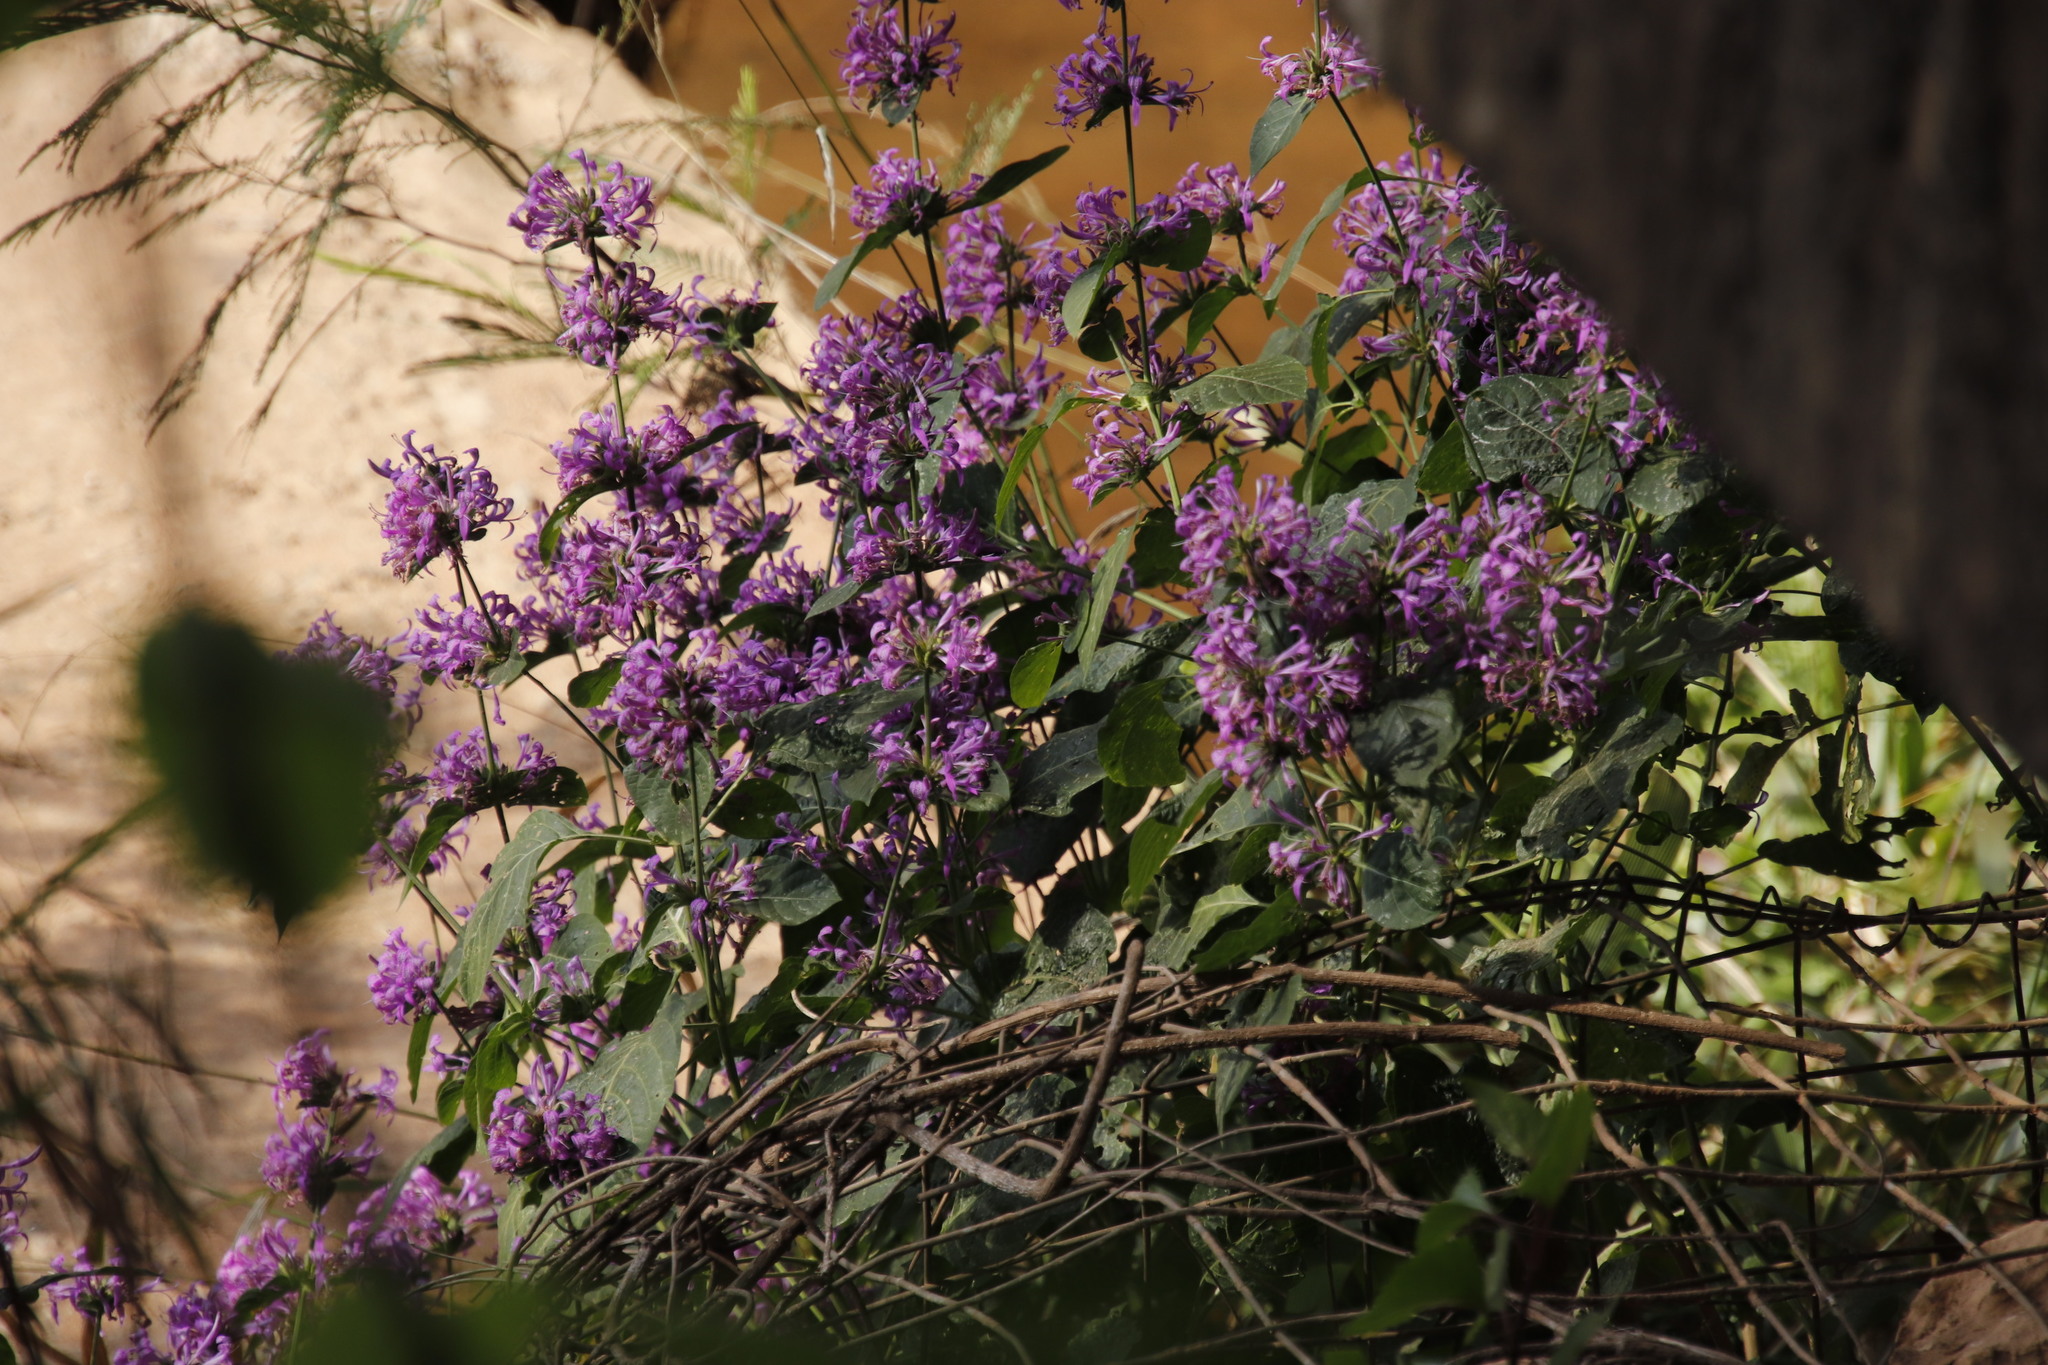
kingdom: Plantae
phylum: Tracheophyta
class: Magnoliopsida
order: Lamiales
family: Acanthaceae
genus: Hypoestes
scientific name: Hypoestes aristata
